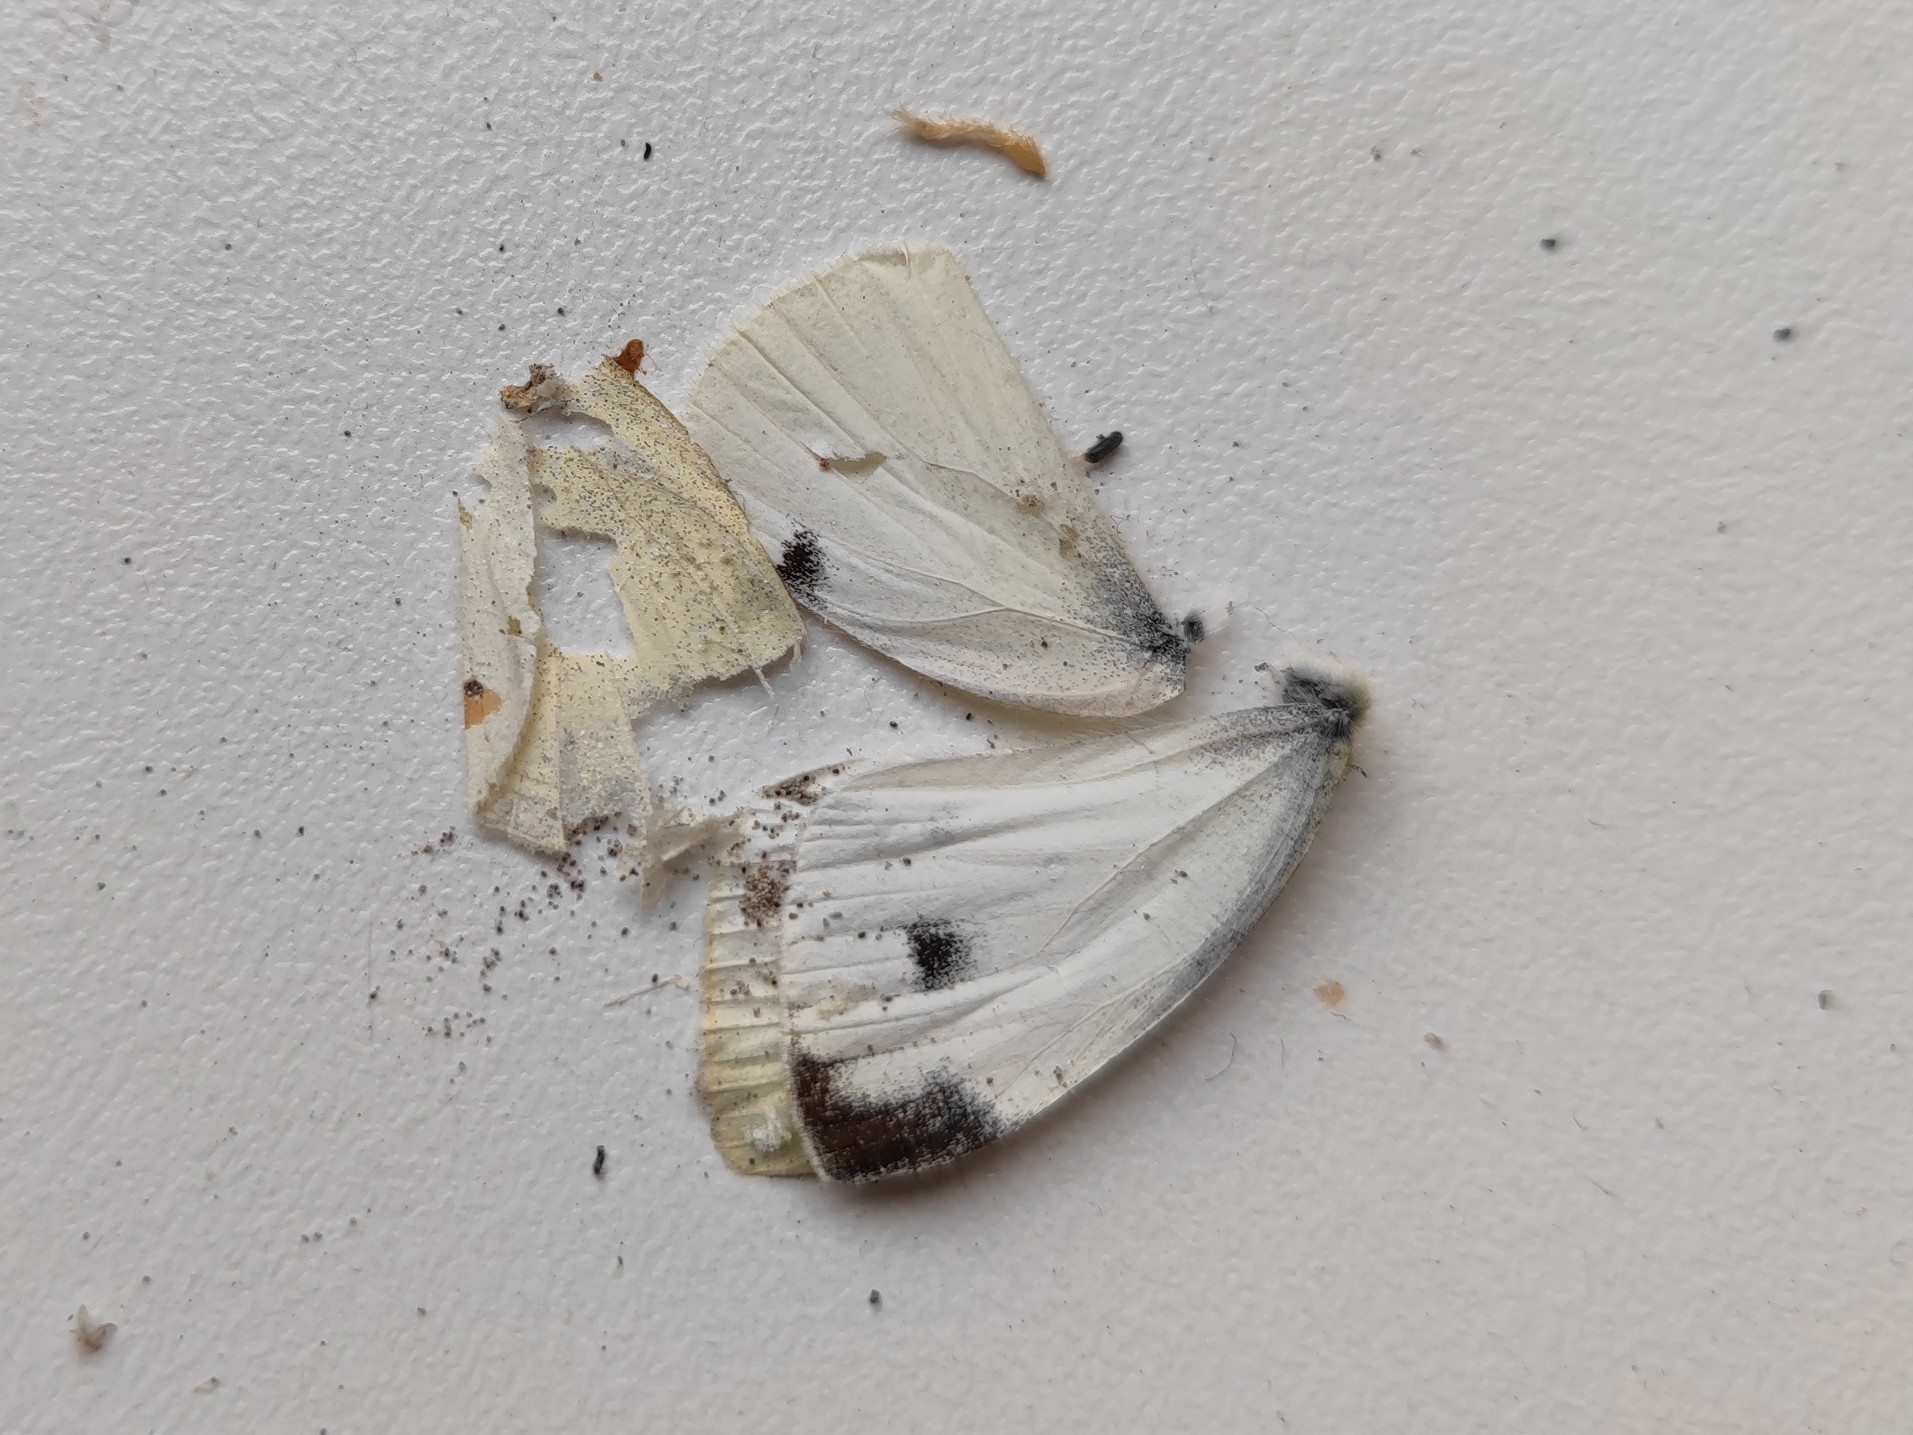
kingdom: Animalia
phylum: Arthropoda
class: Insecta
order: Lepidoptera
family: Pieridae
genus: Pieris
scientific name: Pieris mannii
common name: Southern small white
